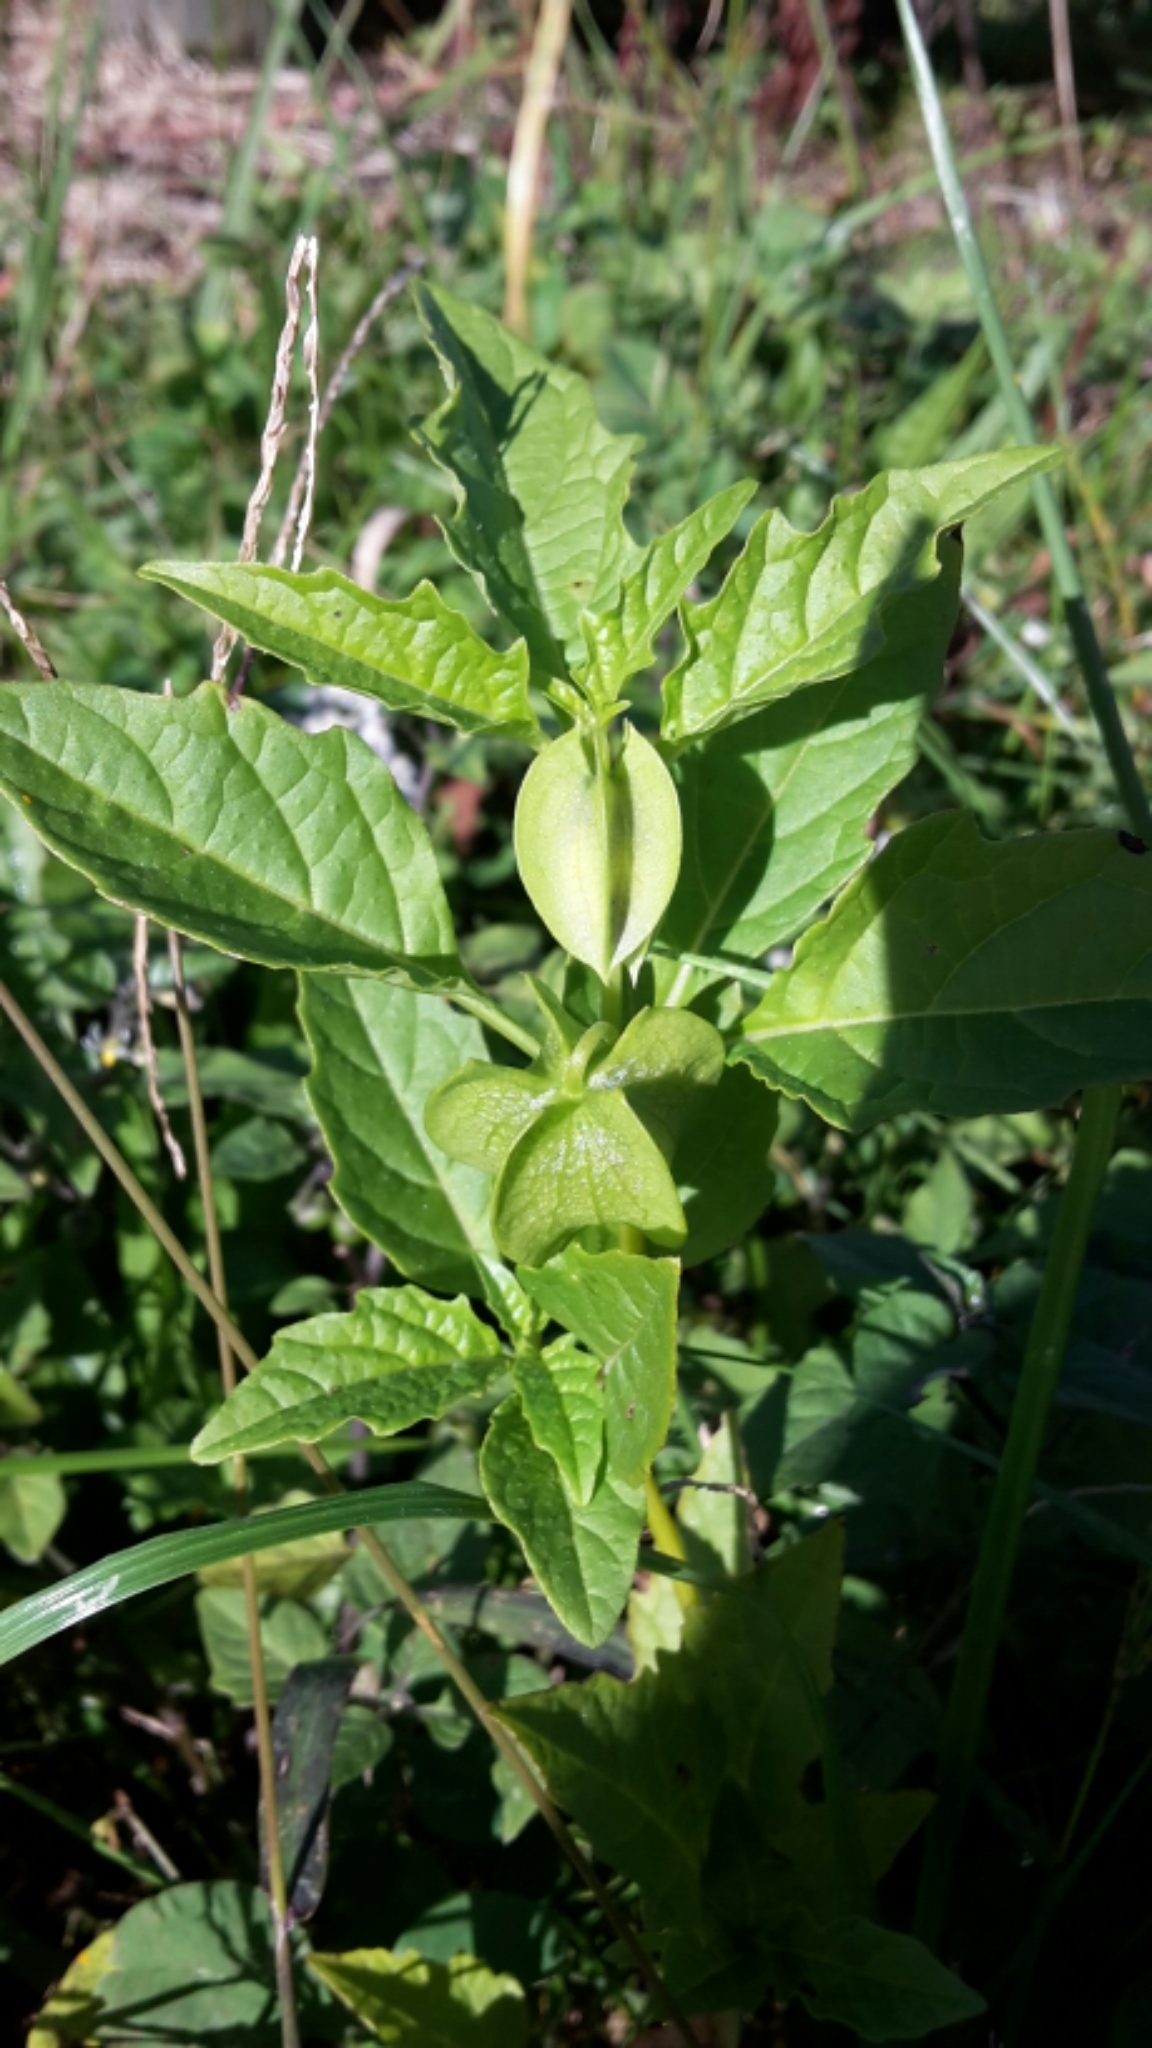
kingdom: Plantae
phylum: Tracheophyta
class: Magnoliopsida
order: Solanales
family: Solanaceae
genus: Nicandra
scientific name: Nicandra physalodes
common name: Apple-of-peru
